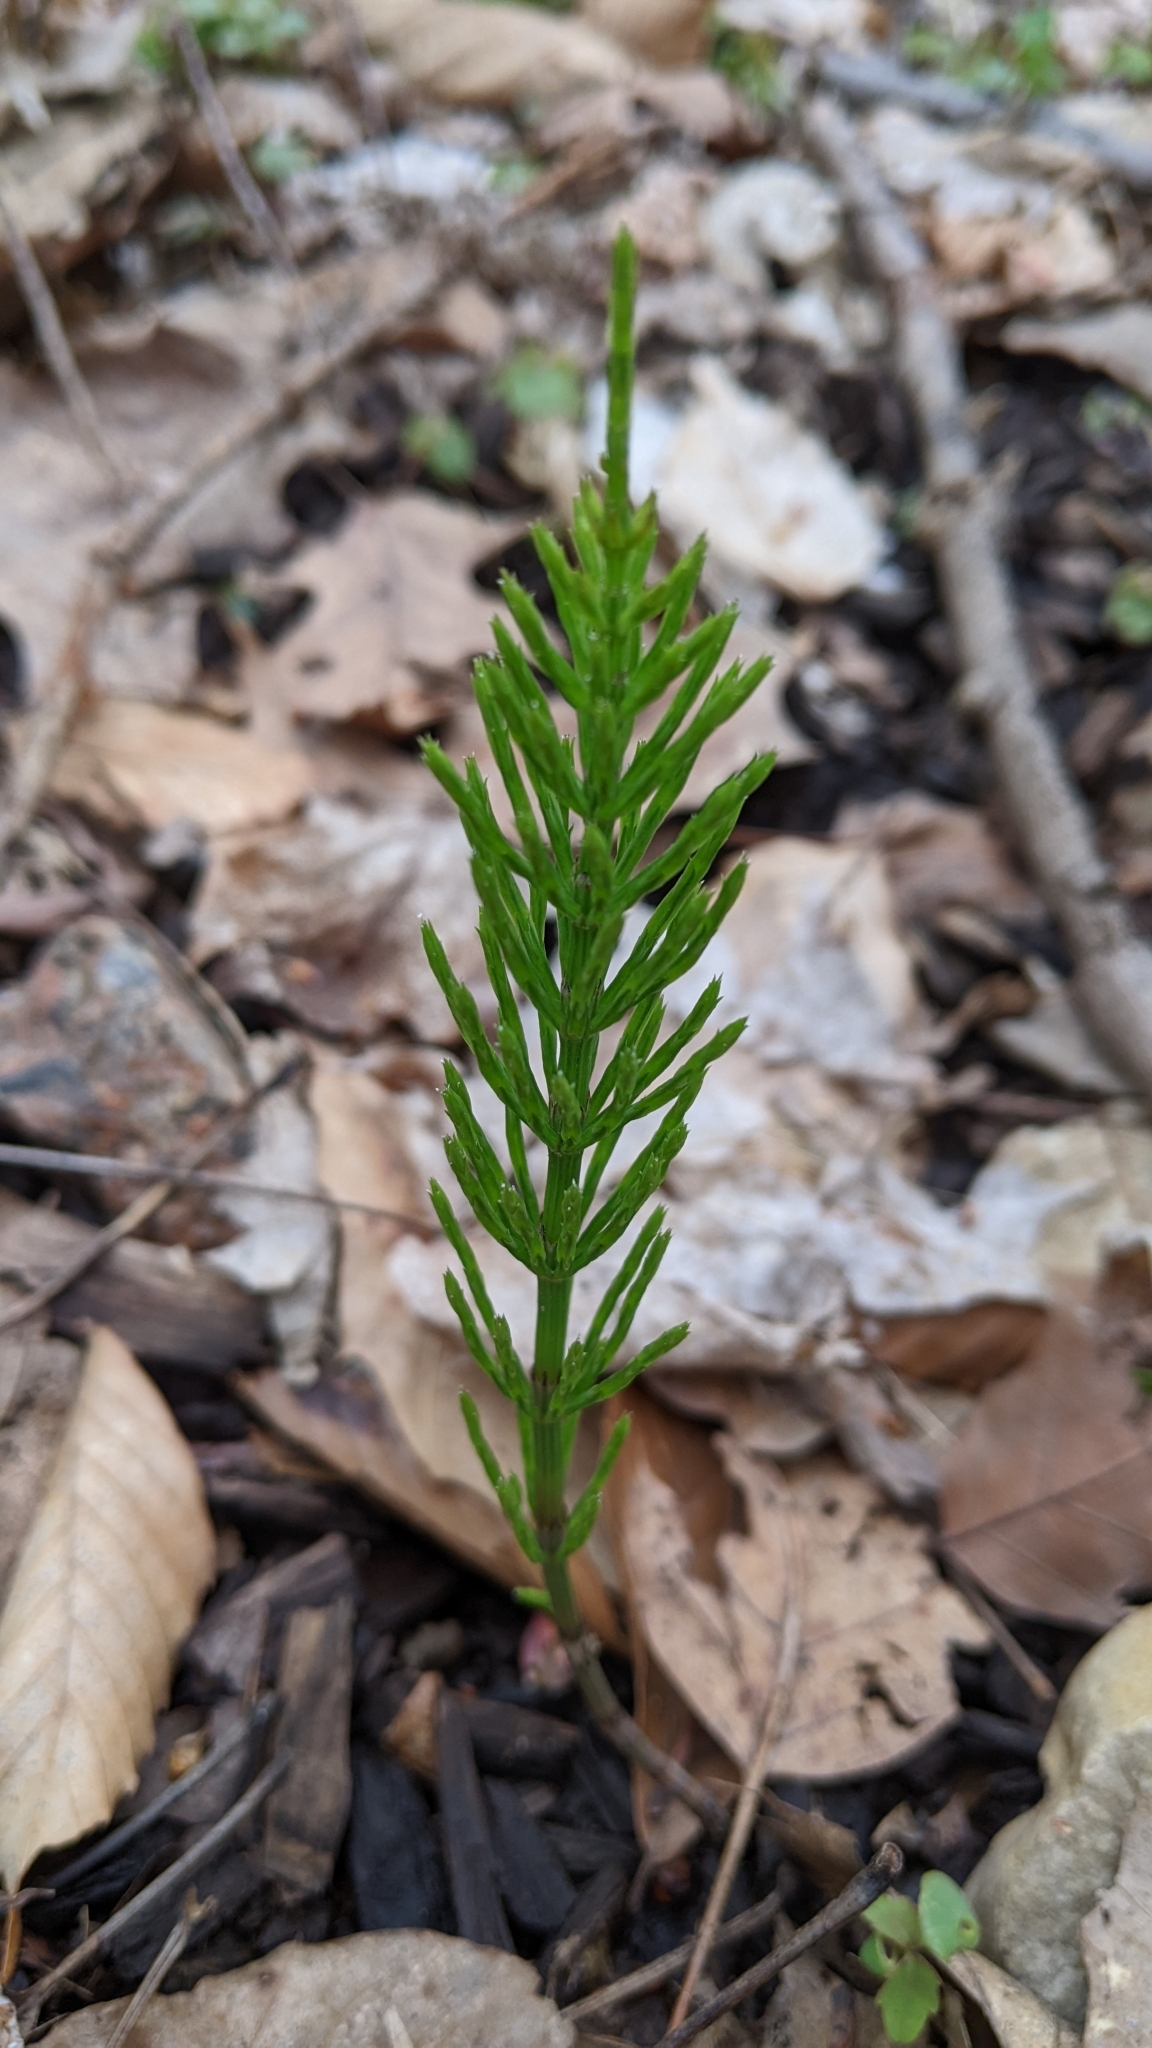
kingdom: Plantae
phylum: Tracheophyta
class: Polypodiopsida
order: Equisetales
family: Equisetaceae
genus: Equisetum
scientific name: Equisetum arvense
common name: Field horsetail
